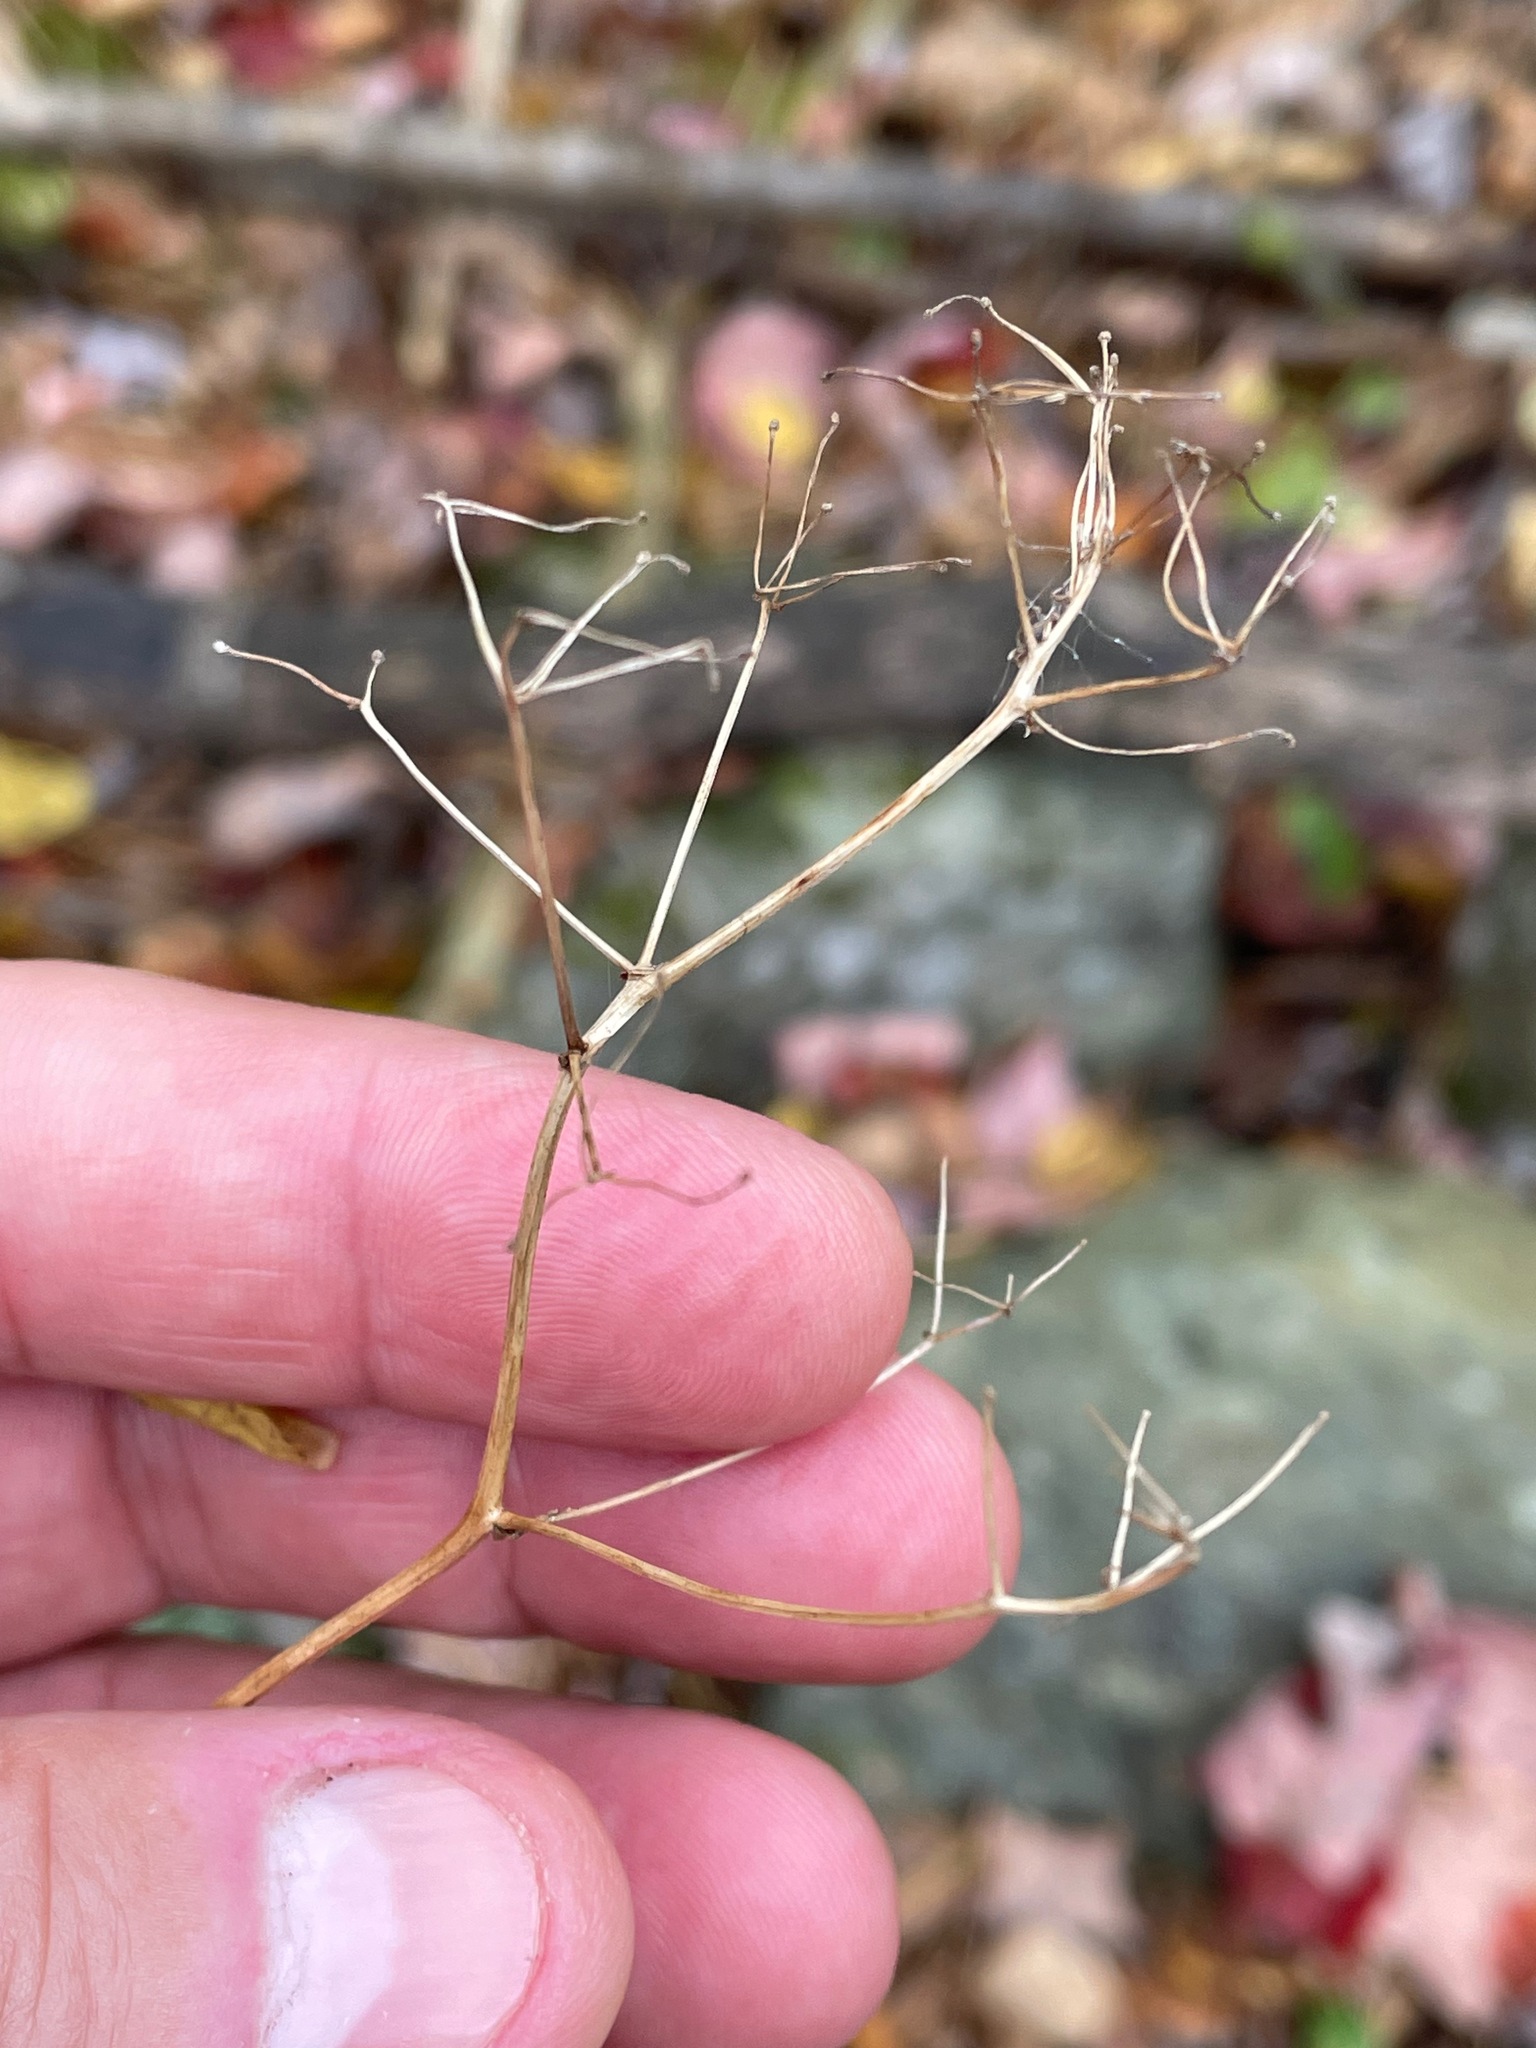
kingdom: Plantae
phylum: Tracheophyta
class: Magnoliopsida
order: Ranunculales
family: Ranunculaceae
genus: Thalictrum
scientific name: Thalictrum pubescens
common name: King-of-the-meadow
